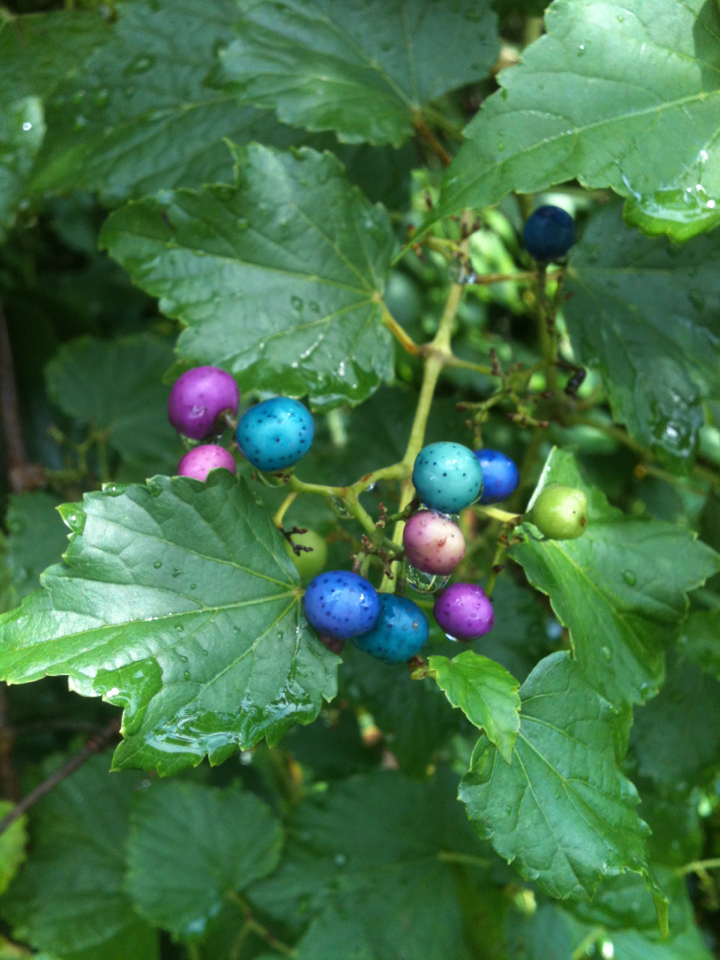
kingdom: Plantae
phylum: Tracheophyta
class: Magnoliopsida
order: Vitales
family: Vitaceae
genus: Ampelopsis
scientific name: Ampelopsis glandulosa
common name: Amur peppervine
